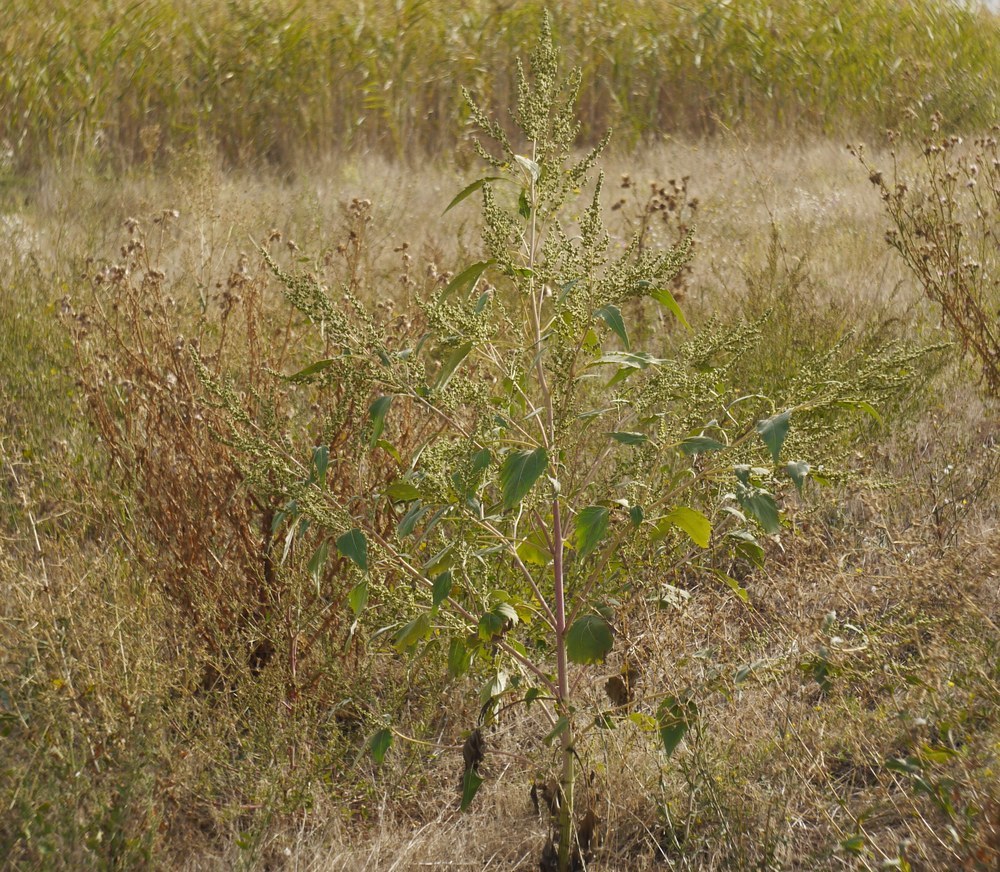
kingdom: Plantae
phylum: Tracheophyta
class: Magnoliopsida
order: Asterales
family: Asteraceae
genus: Cyclachaena
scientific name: Cyclachaena xanthiifolia
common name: Giant sumpweed
